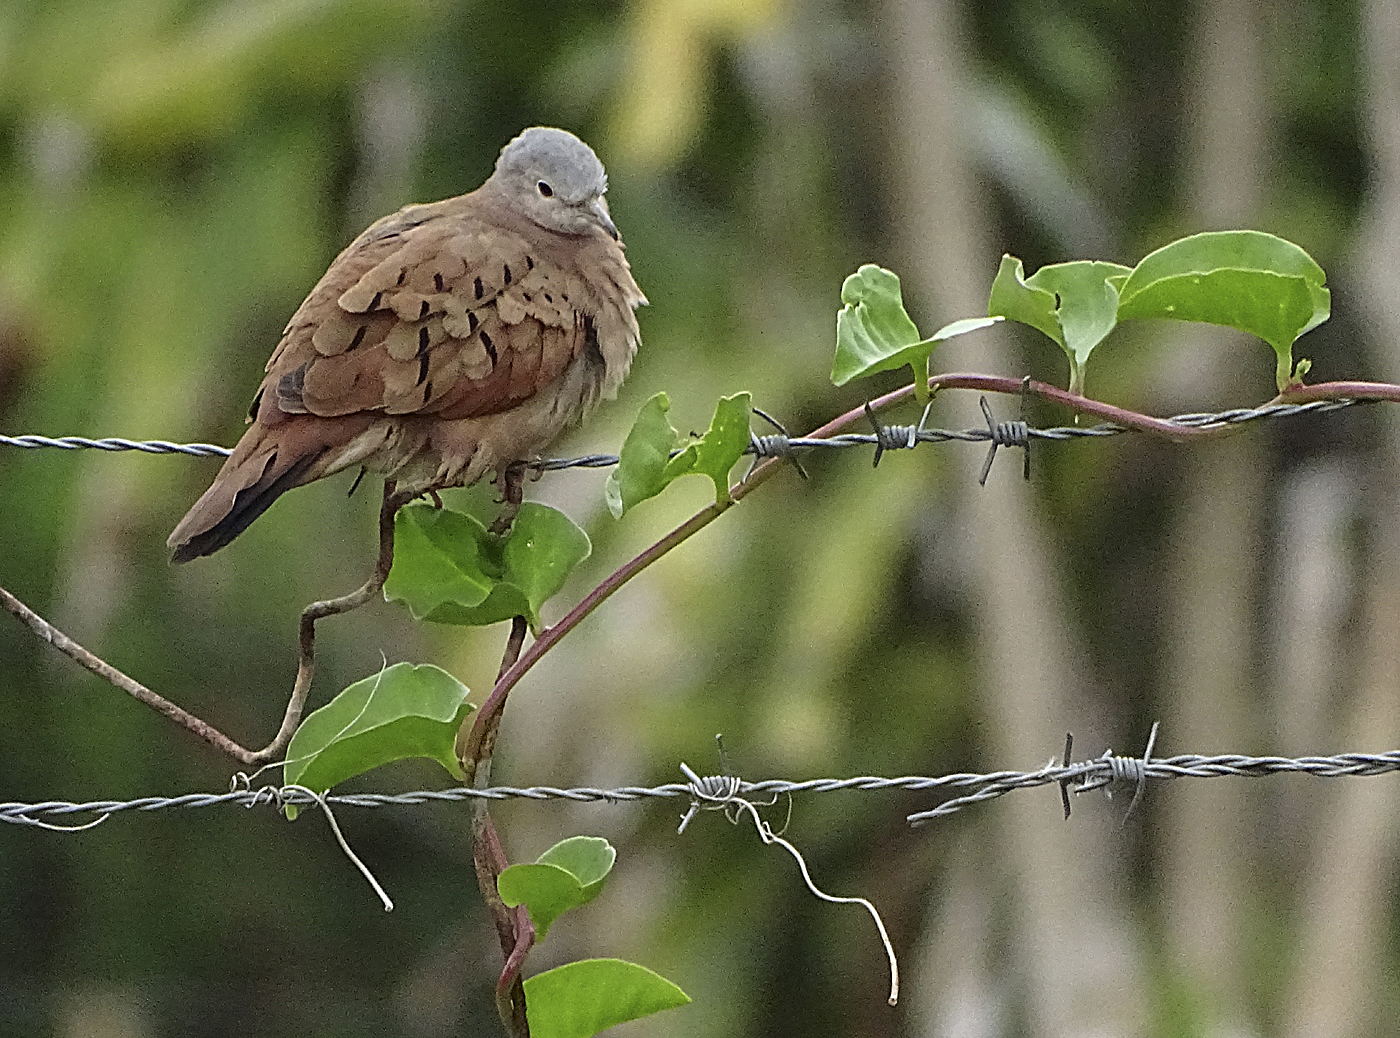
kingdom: Animalia
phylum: Chordata
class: Aves
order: Columbiformes
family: Columbidae
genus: Columbina
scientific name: Columbina talpacoti
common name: Ruddy ground dove
